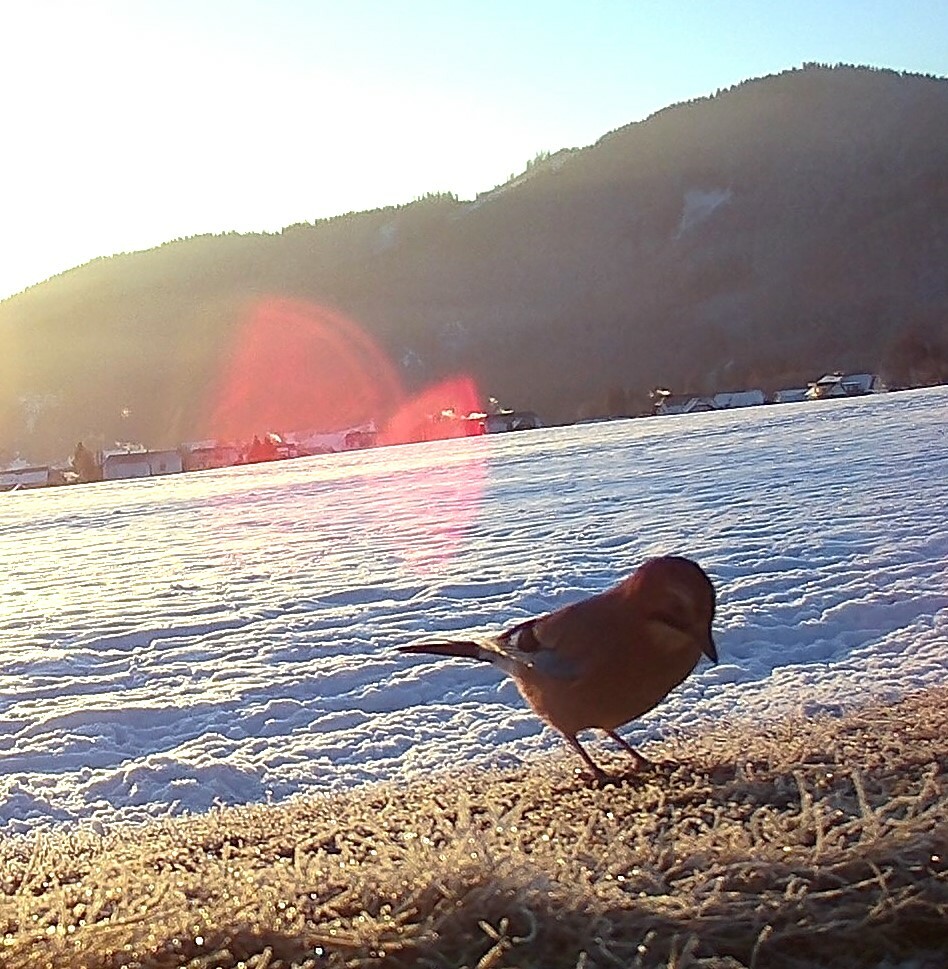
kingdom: Animalia
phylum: Chordata
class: Aves
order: Passeriformes
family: Corvidae
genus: Garrulus
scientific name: Garrulus glandarius
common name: Eurasian jay
